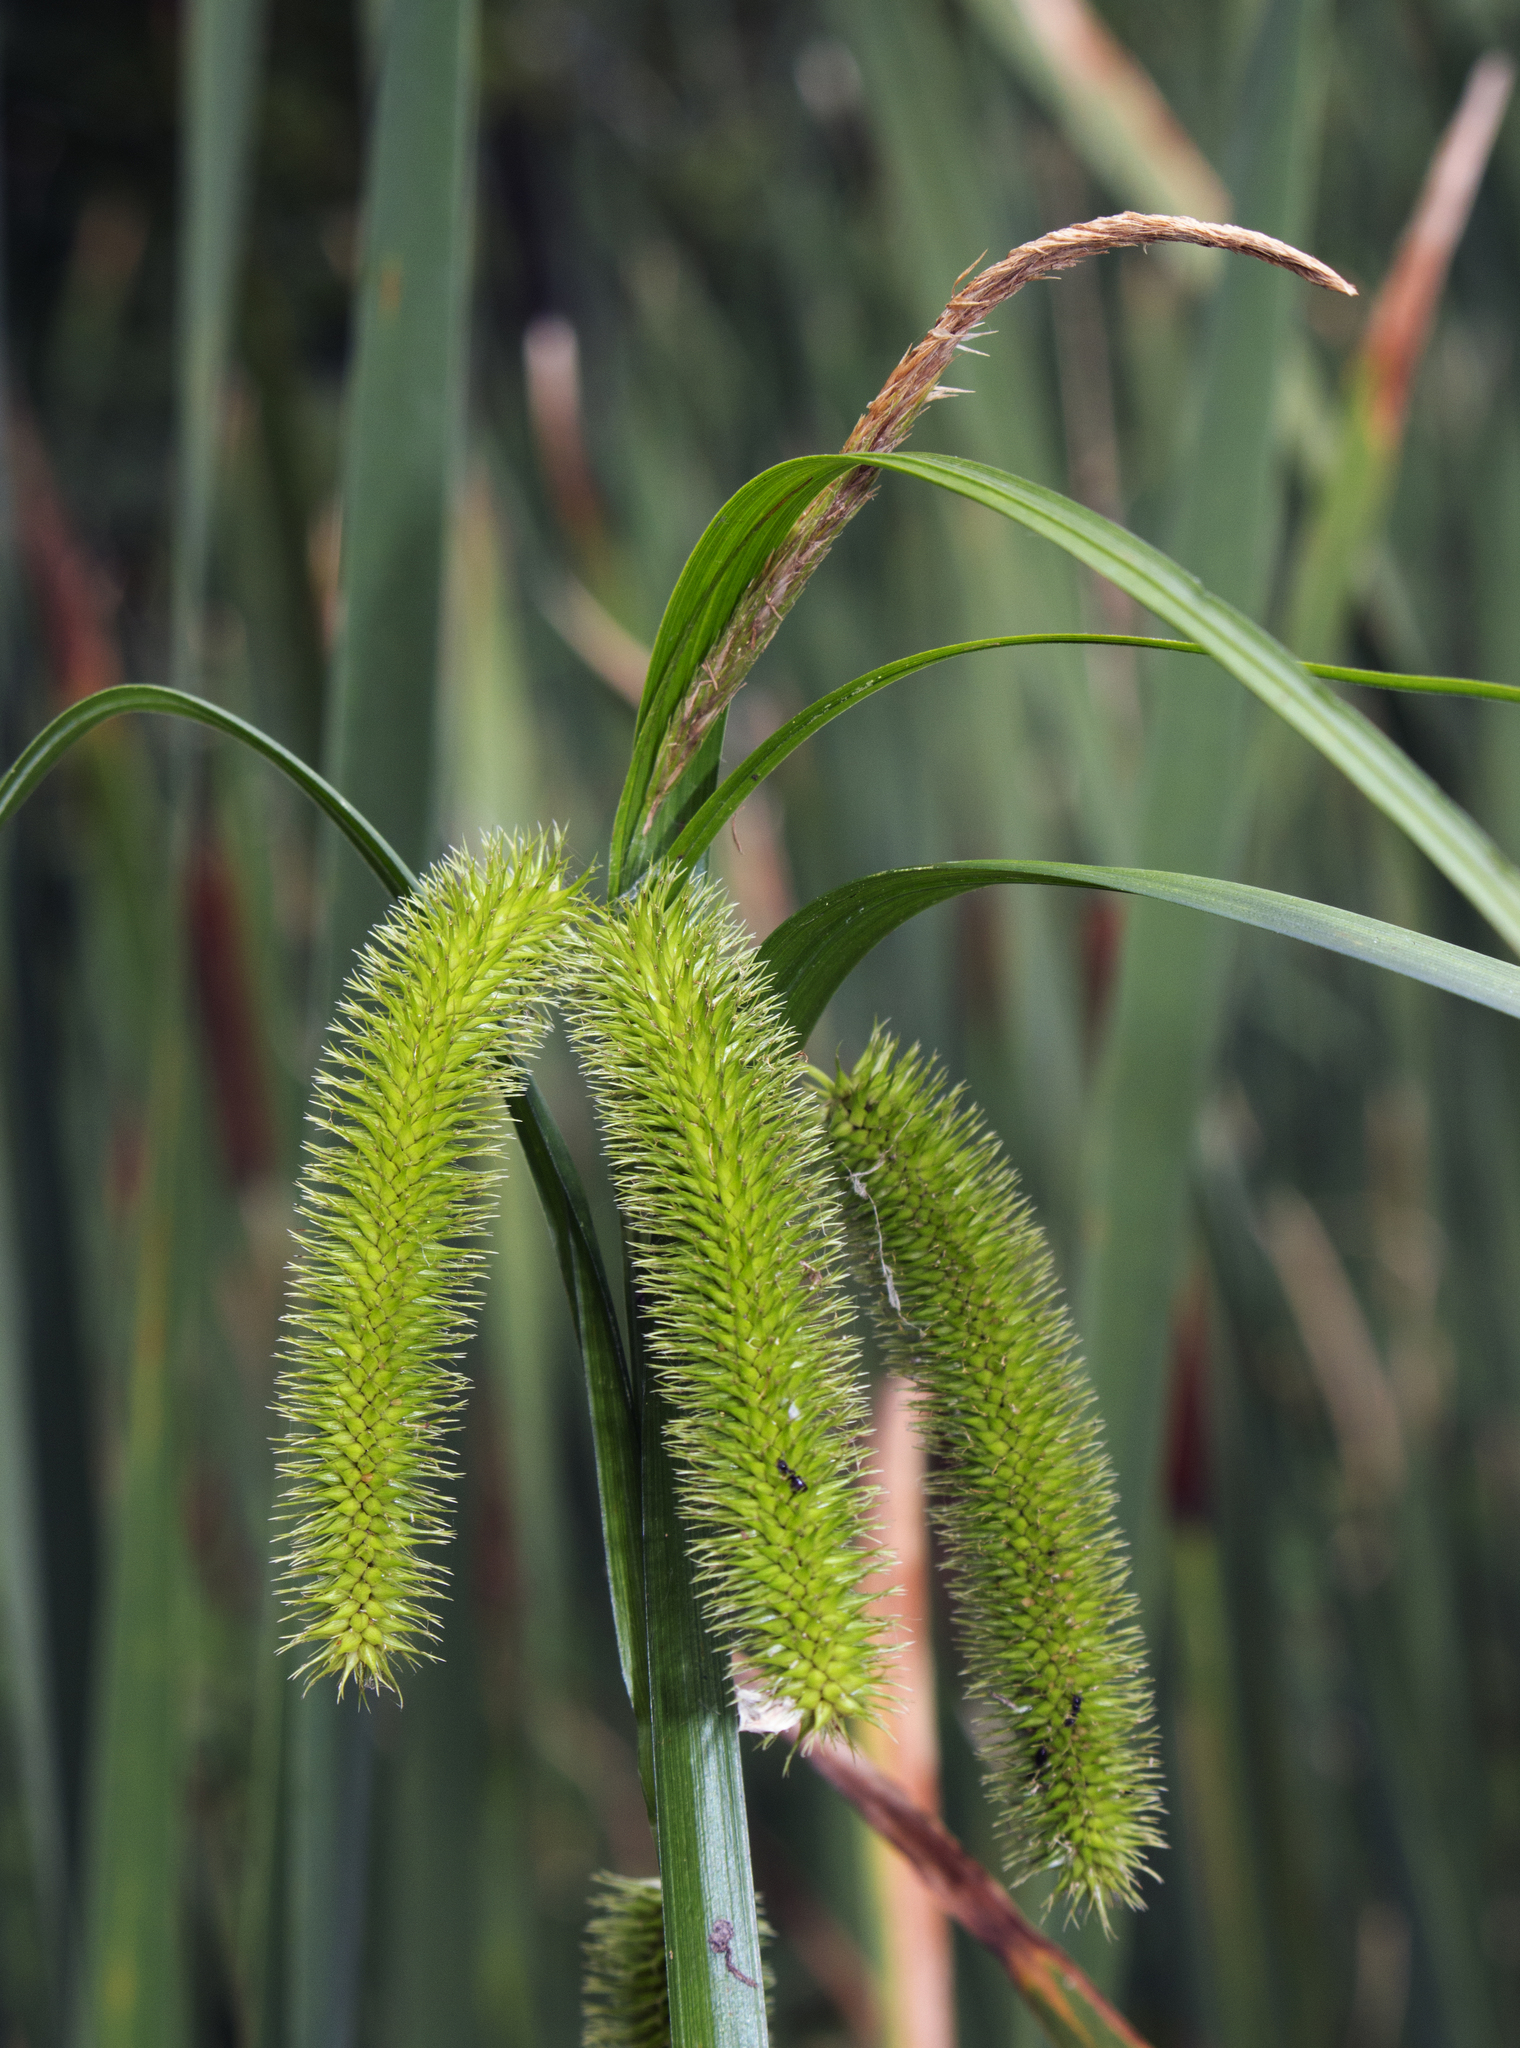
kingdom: Plantae
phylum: Tracheophyta
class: Liliopsida
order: Poales
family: Cyperaceae
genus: Carex
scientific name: Carex comosa
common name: Bristly sedge
